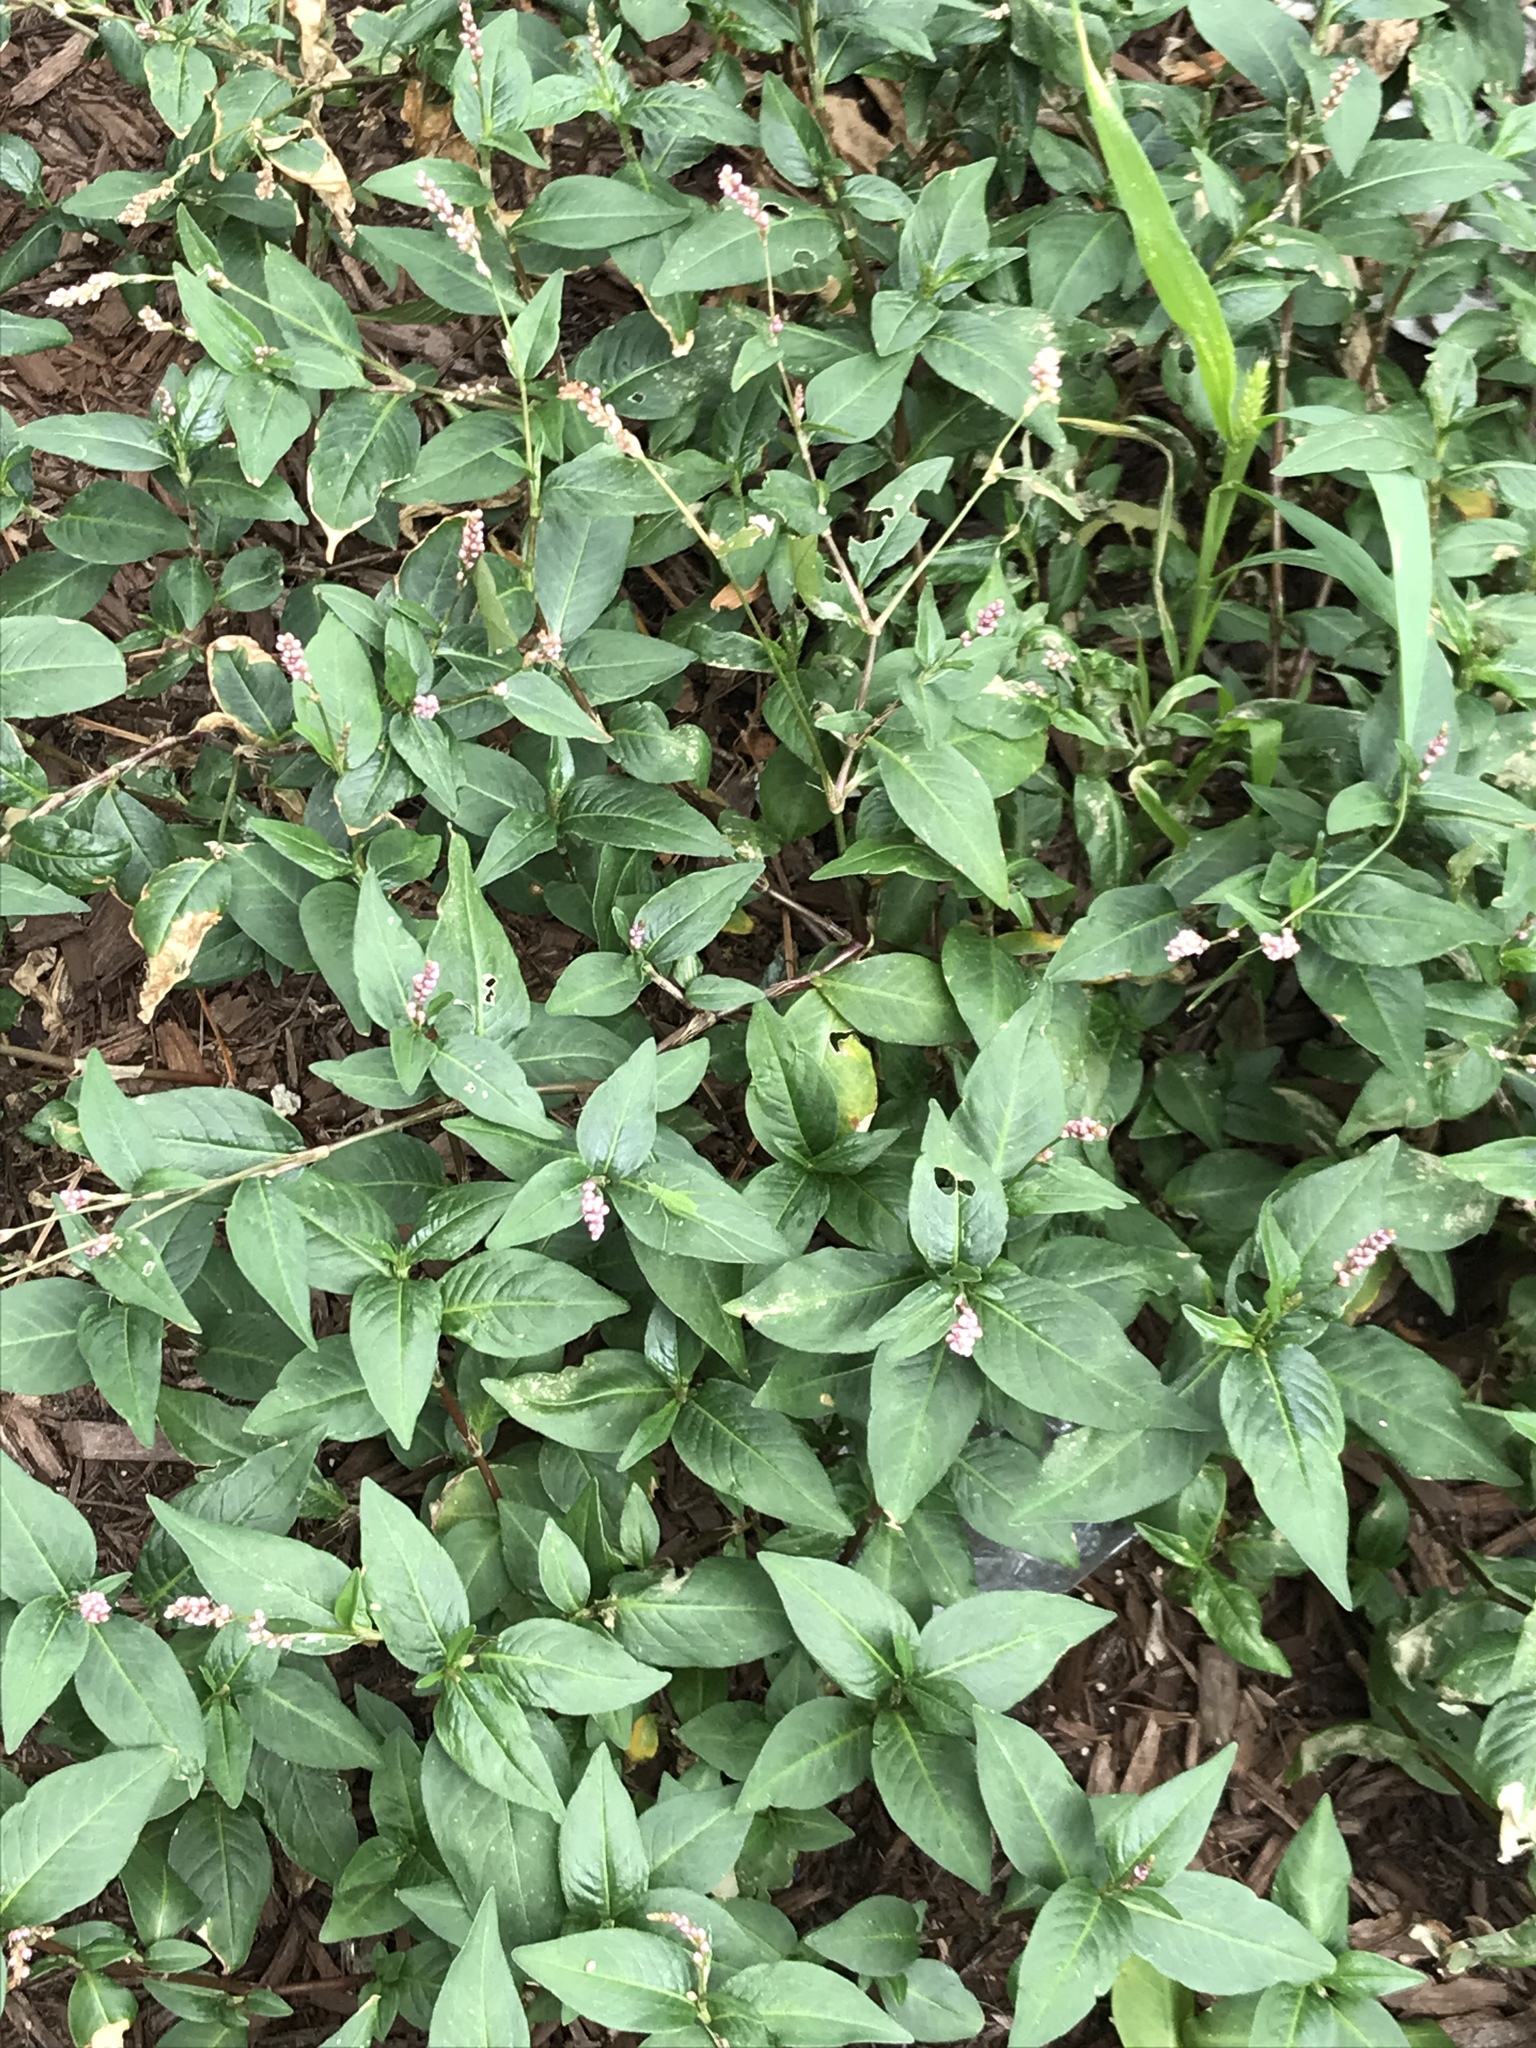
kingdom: Plantae
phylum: Tracheophyta
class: Magnoliopsida
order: Caryophyllales
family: Polygonaceae
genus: Persicaria
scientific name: Persicaria longiseta
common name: Bristly lady's-thumb
